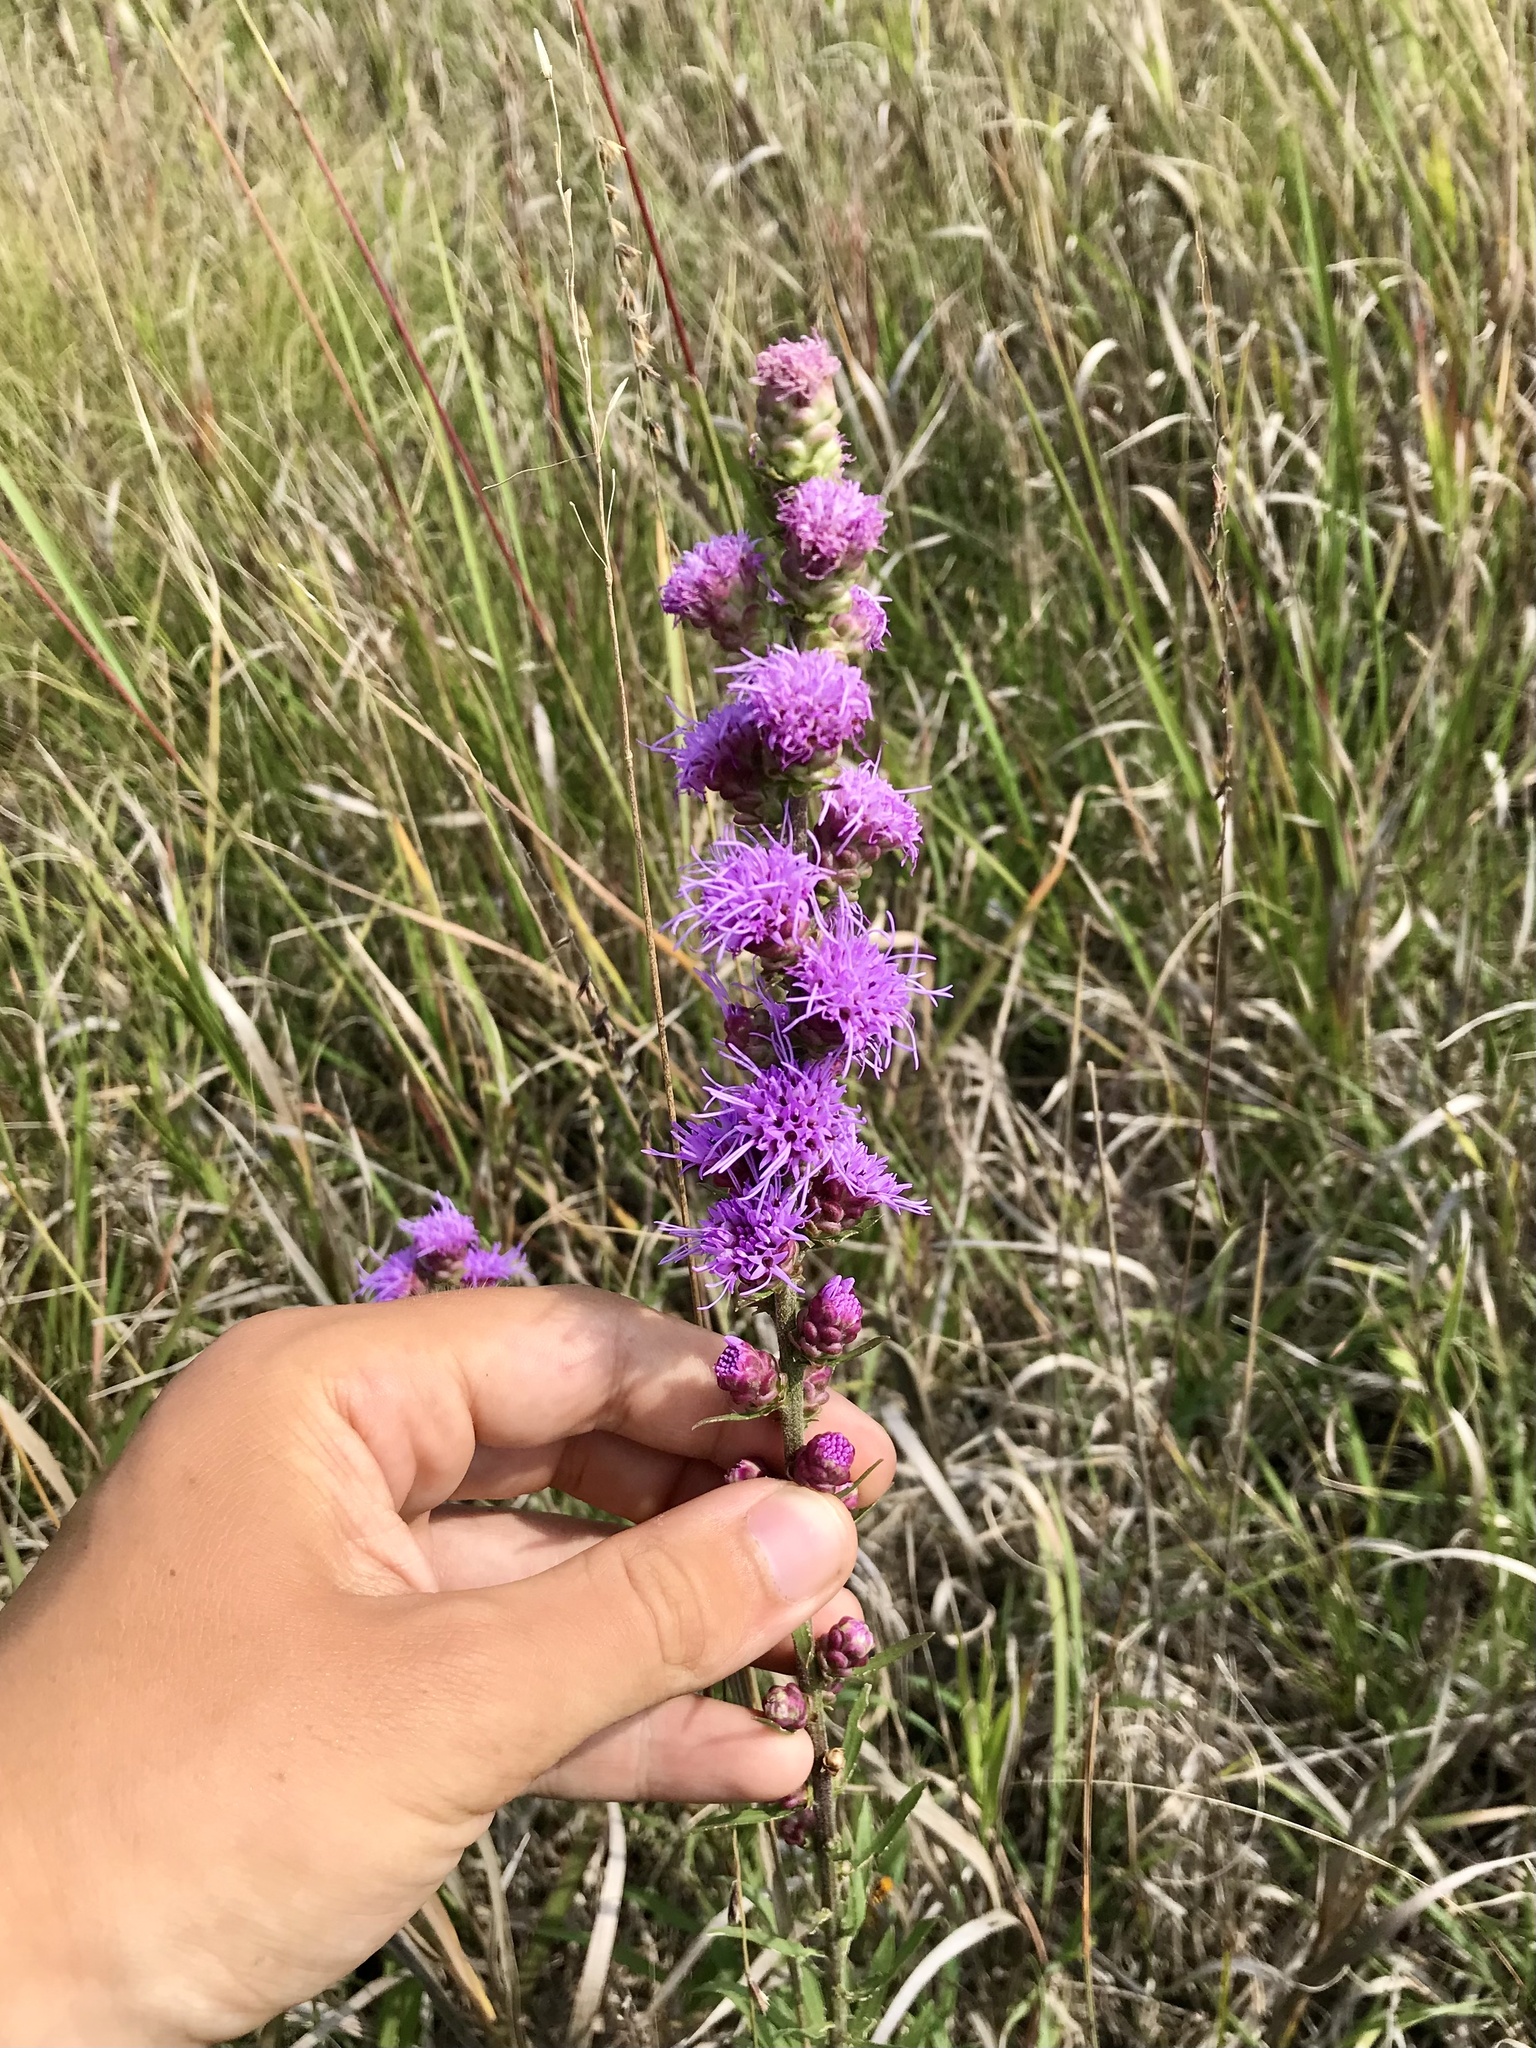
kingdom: Plantae
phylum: Tracheophyta
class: Magnoliopsida
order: Asterales
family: Asteraceae
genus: Liatris
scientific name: Liatris aspera
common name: Lacerate blazing-star
